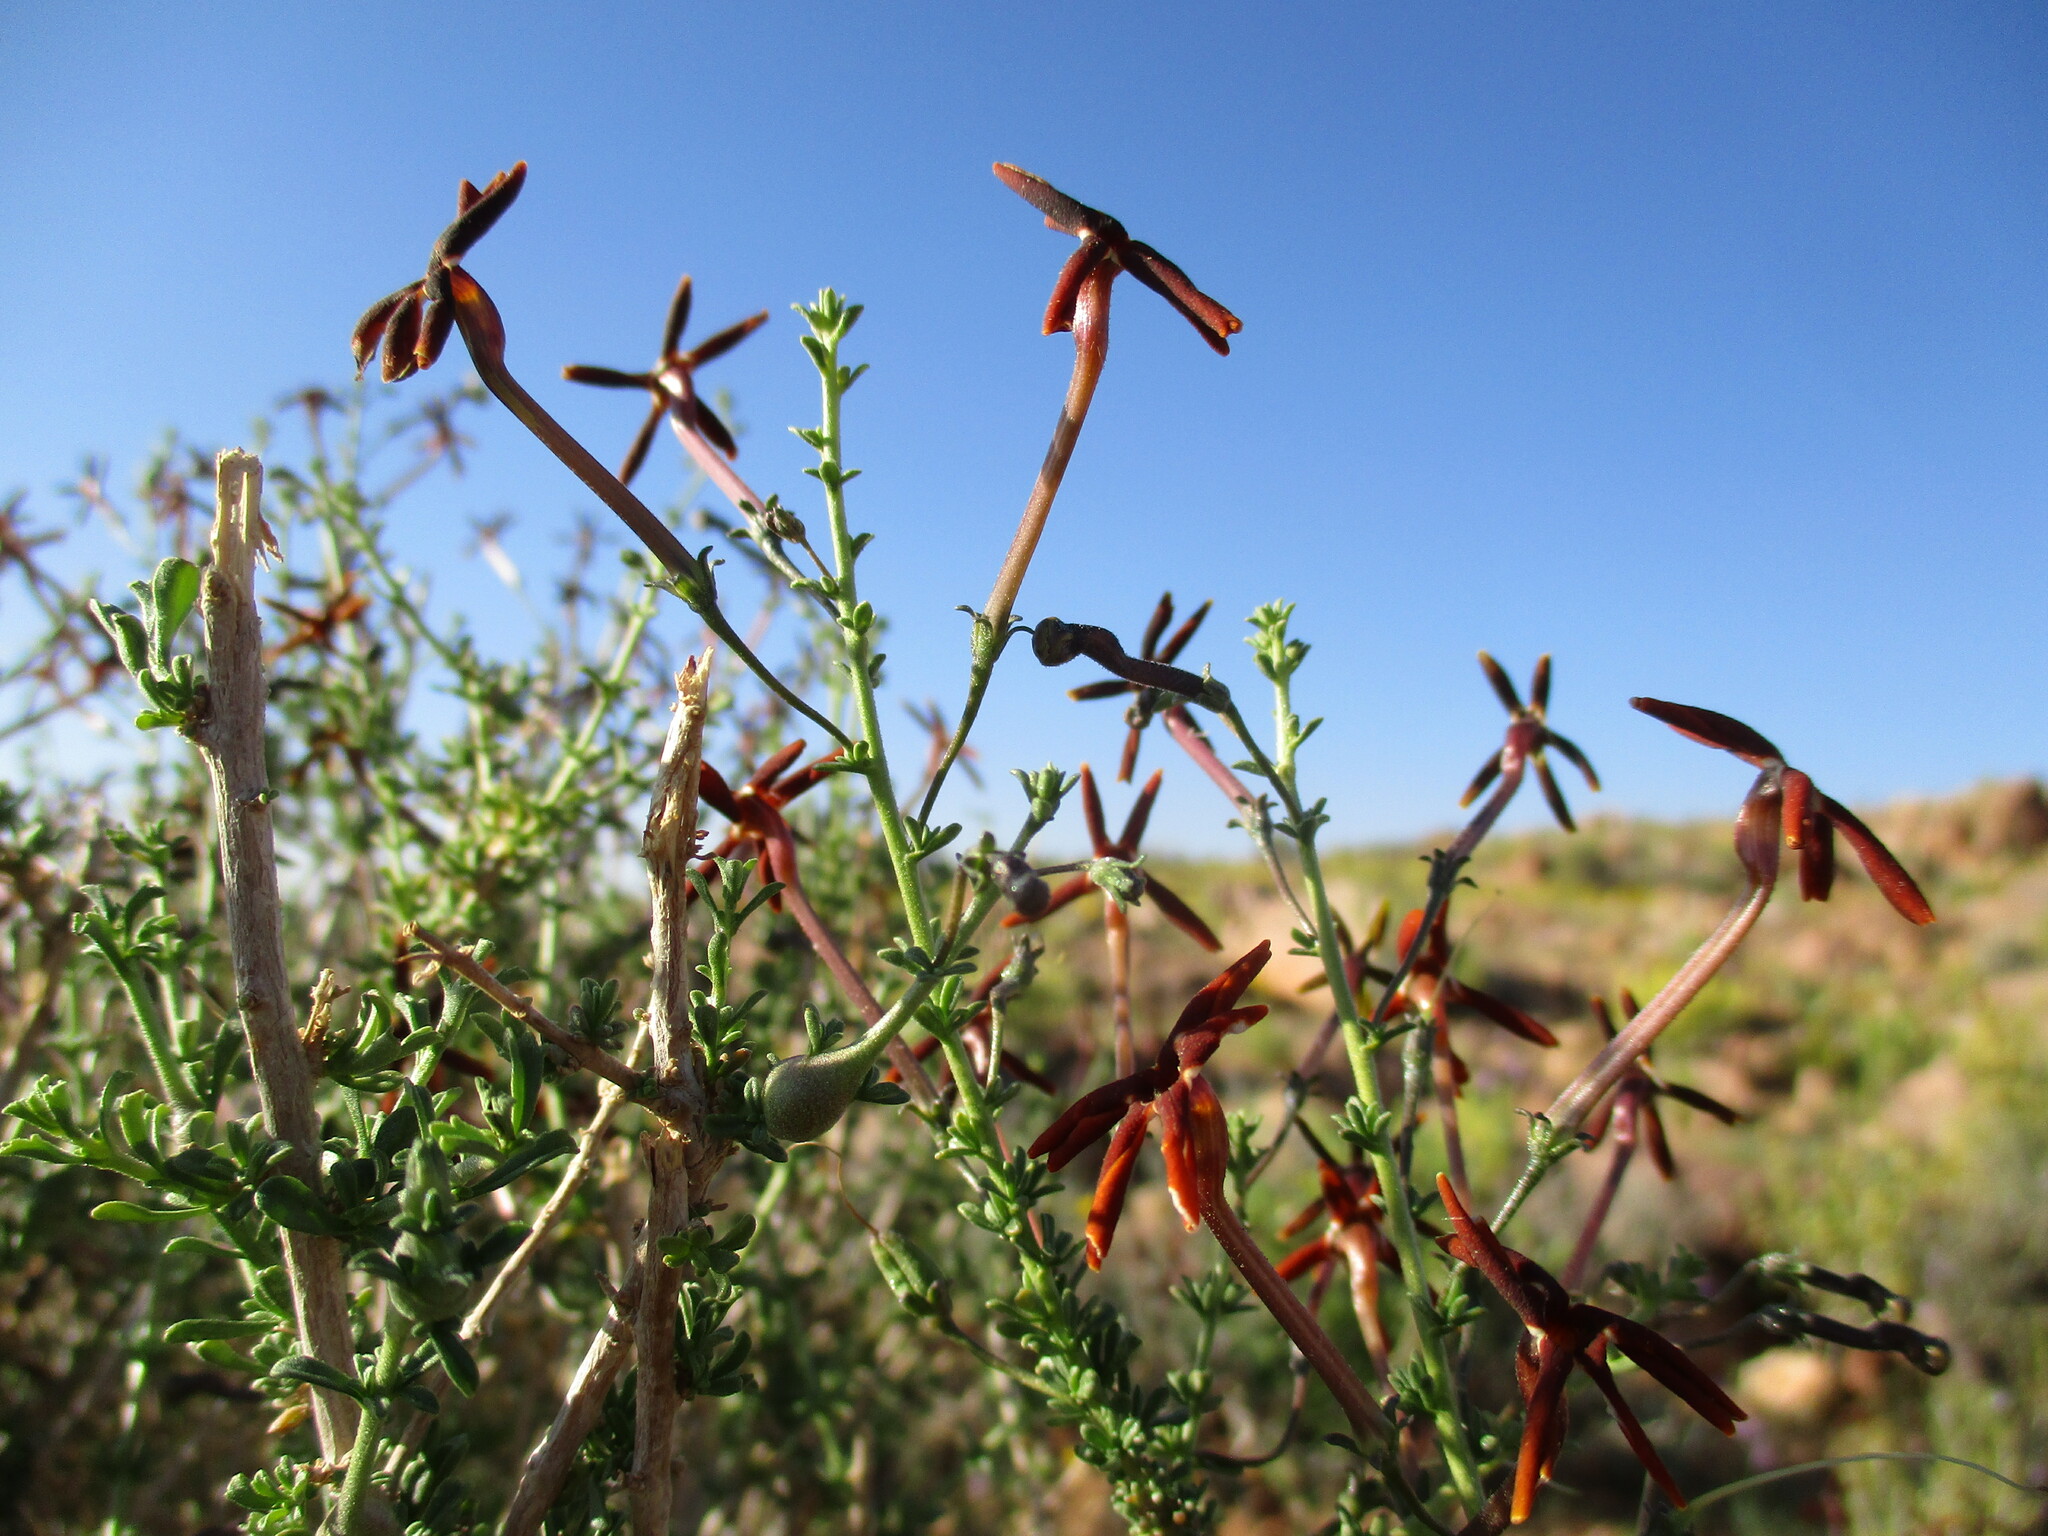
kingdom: Plantae
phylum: Tracheophyta
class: Magnoliopsida
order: Lamiales
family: Scrophulariaceae
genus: Jamesbrittenia
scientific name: Jamesbrittenia atropurpurea
